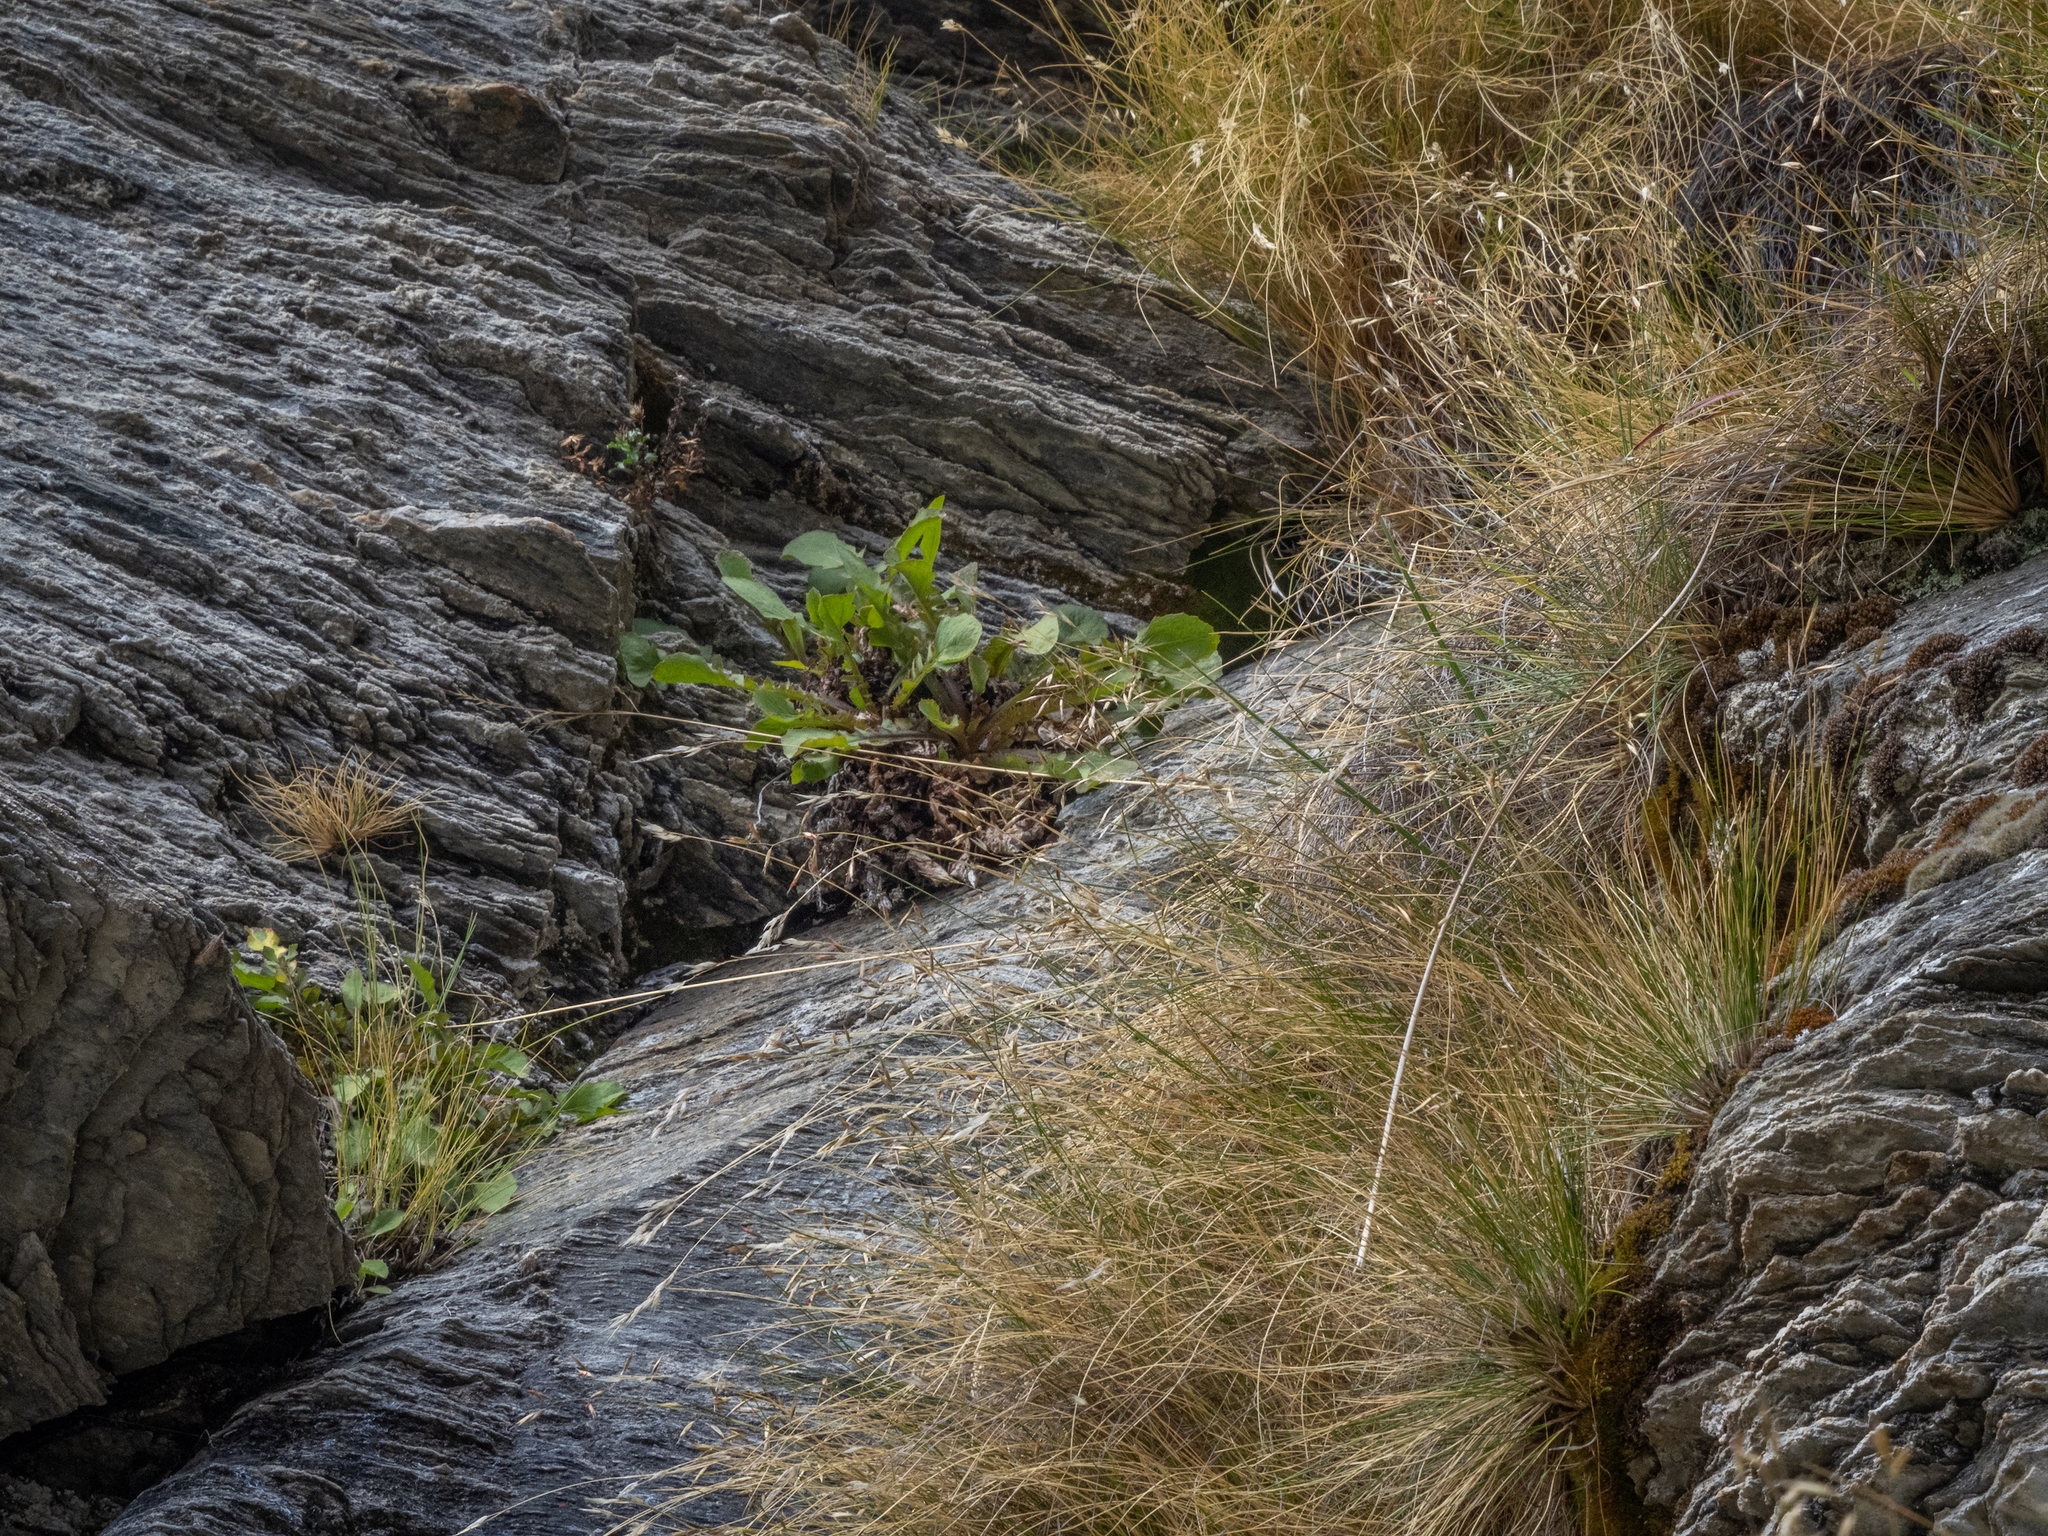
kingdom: Plantae
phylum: Tracheophyta
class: Magnoliopsida
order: Asterales
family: Asteraceae
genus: Sonchus
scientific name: Sonchus novae-zelandiae
